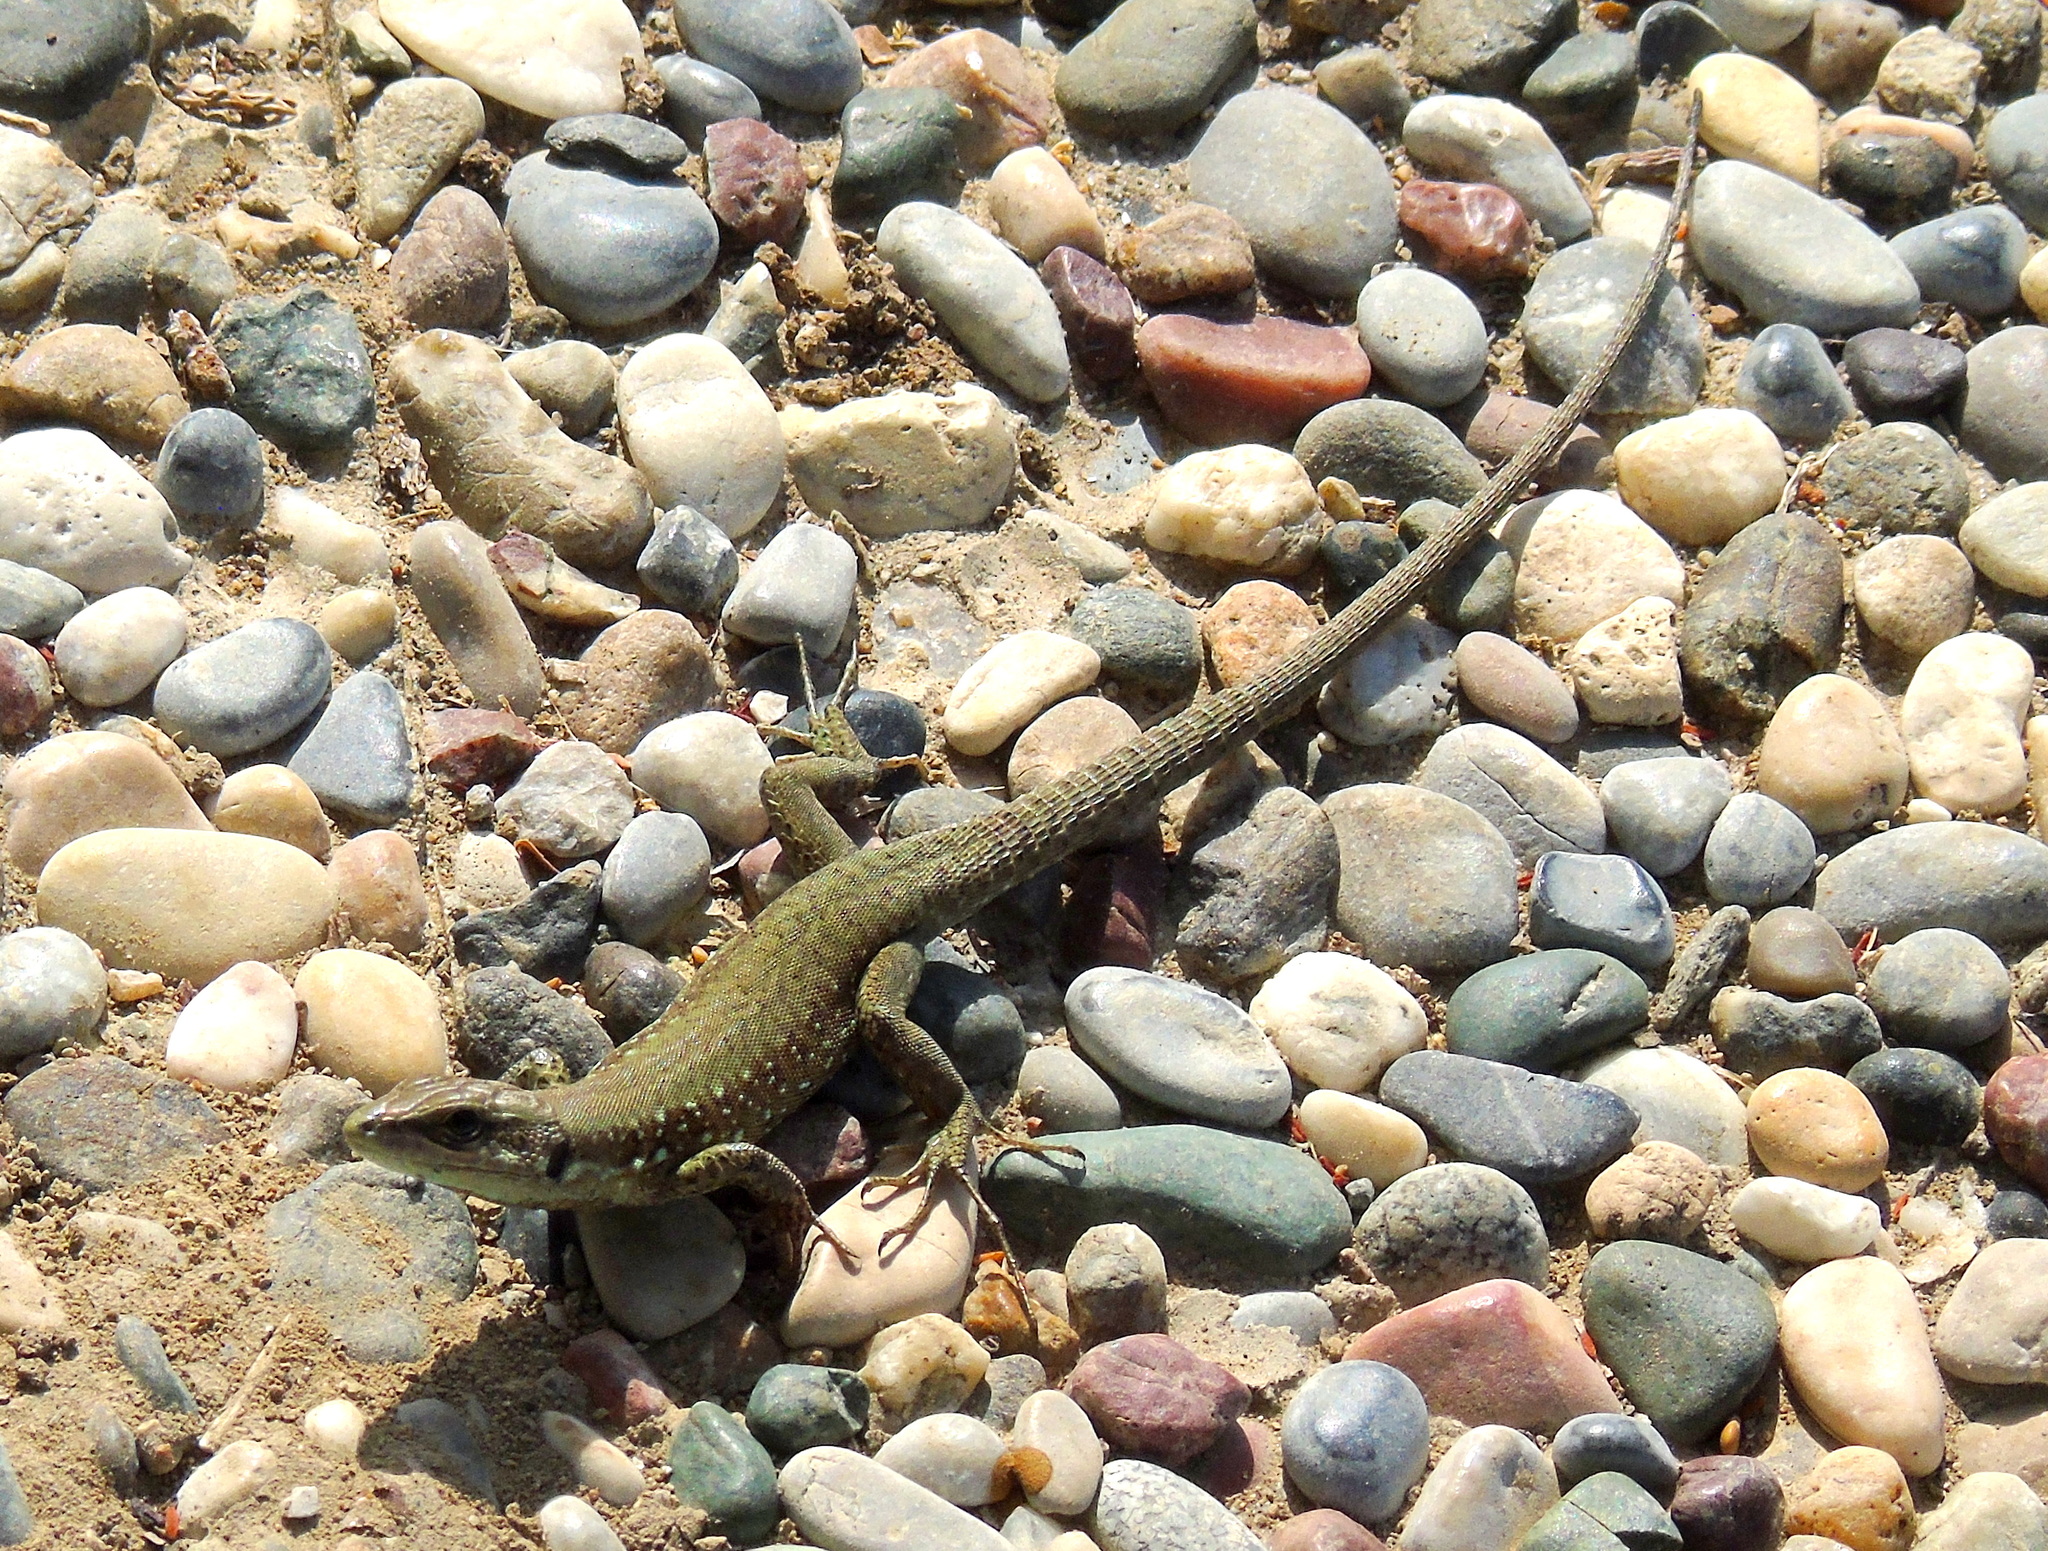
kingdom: Animalia
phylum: Chordata
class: Squamata
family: Lacertidae
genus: Phoenicolacerta
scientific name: Phoenicolacerta laevis
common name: Lebanon lizard
